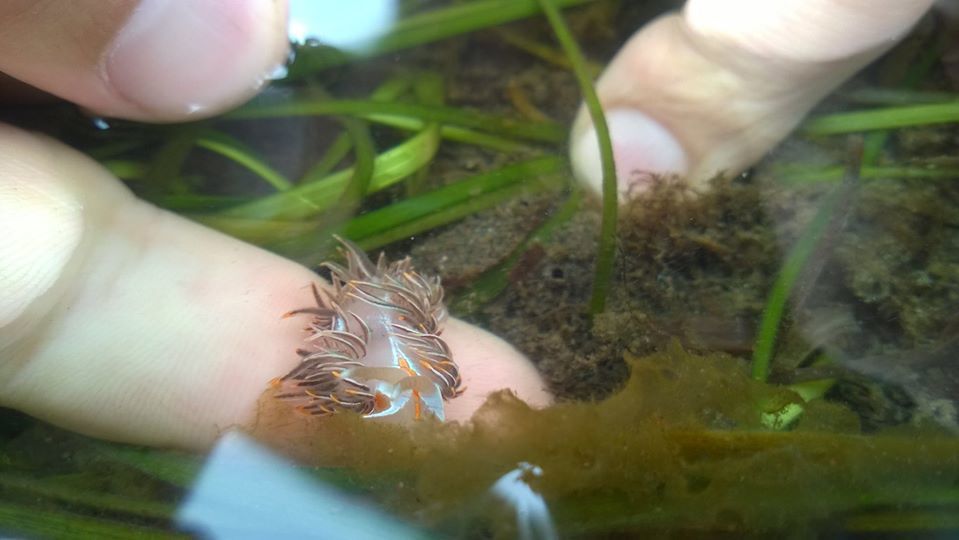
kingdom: Animalia
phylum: Mollusca
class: Gastropoda
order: Nudibranchia
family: Myrrhinidae
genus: Hermissenda
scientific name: Hermissenda crassicornis
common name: Hermissenda
